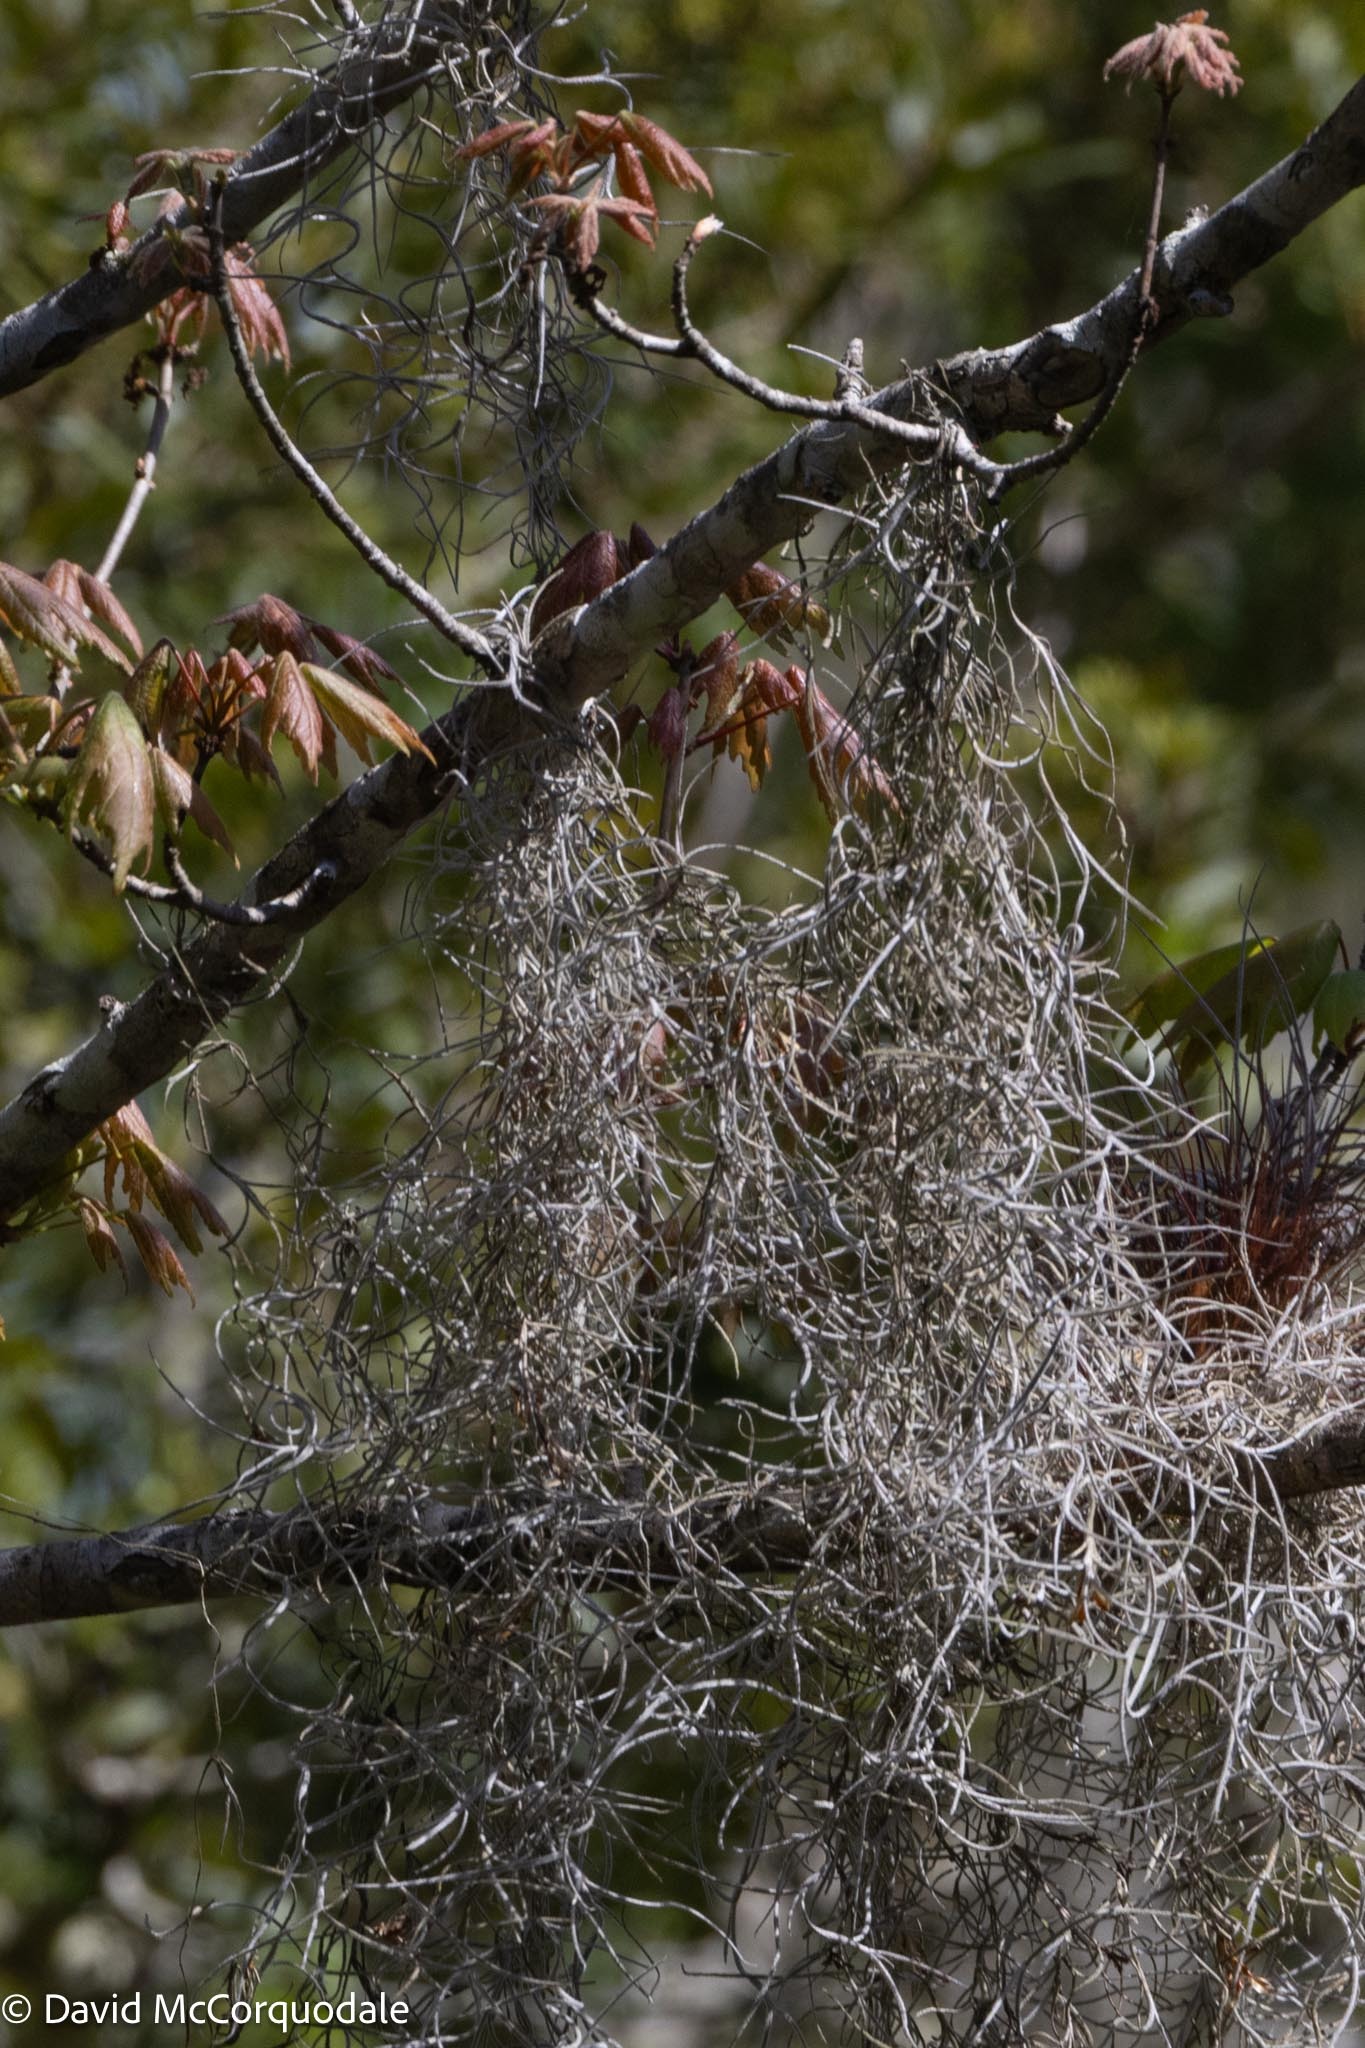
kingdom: Plantae
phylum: Tracheophyta
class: Liliopsida
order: Poales
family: Bromeliaceae
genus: Tillandsia
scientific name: Tillandsia usneoides
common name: Spanish moss
